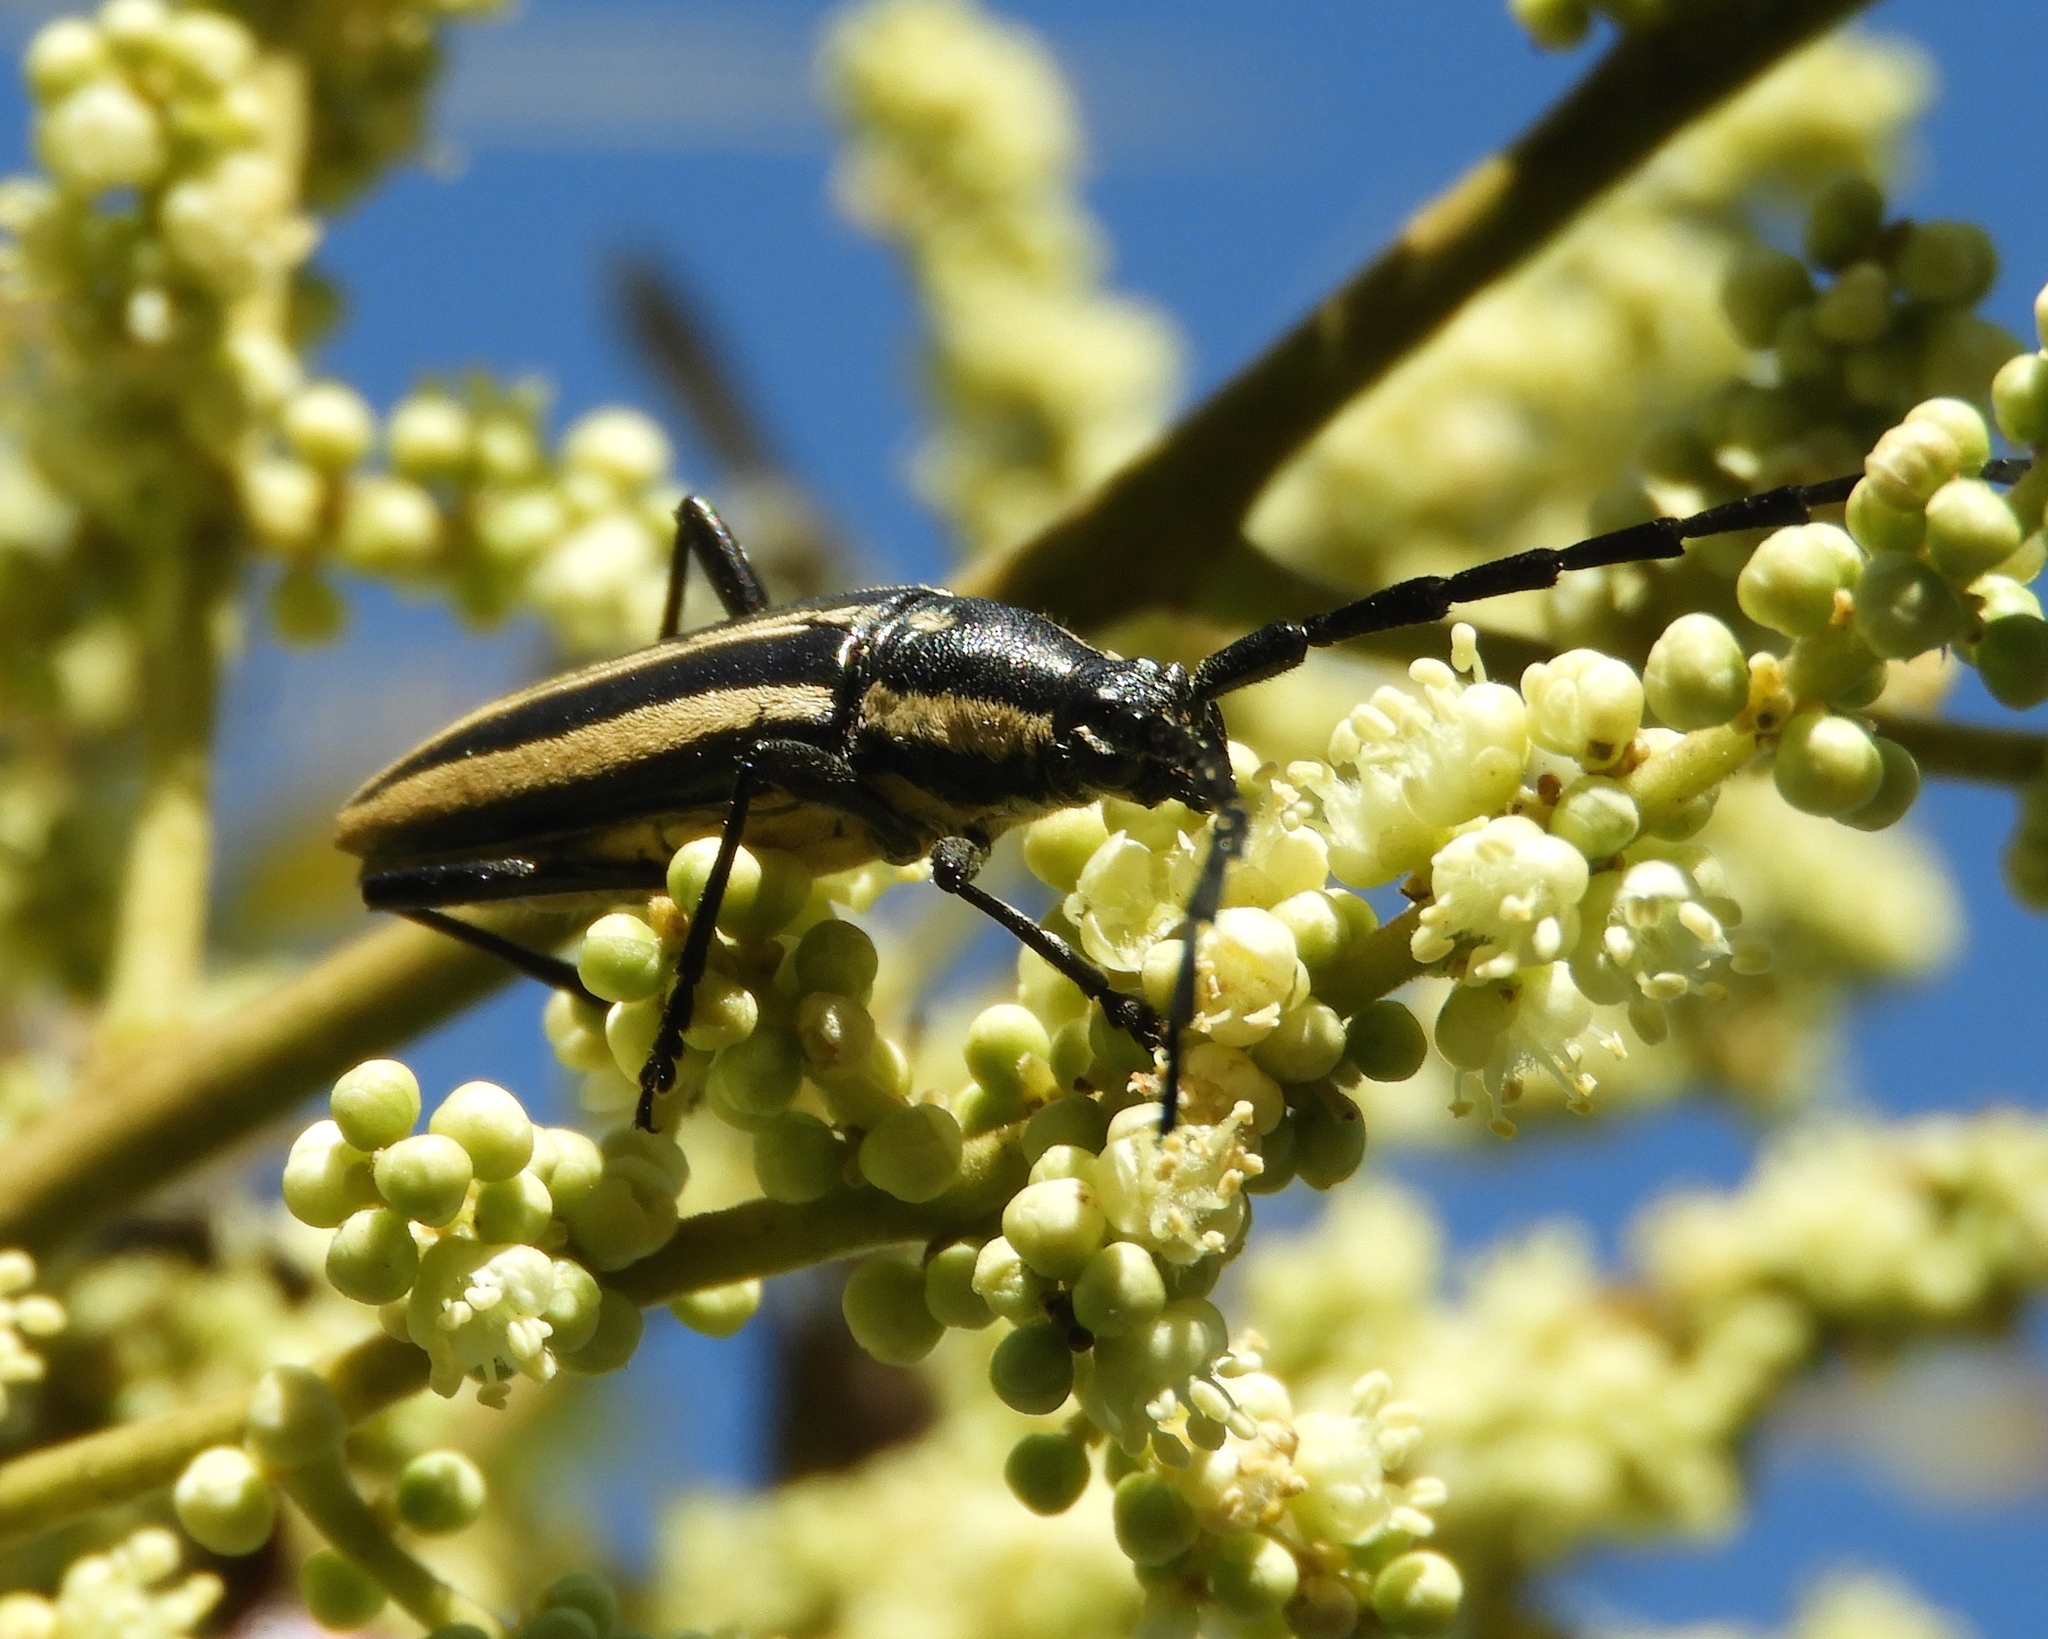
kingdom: Animalia
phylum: Arthropoda
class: Insecta
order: Coleoptera
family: Cerambycidae
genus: Sphaenothecus
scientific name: Sphaenothecus trilineatus
